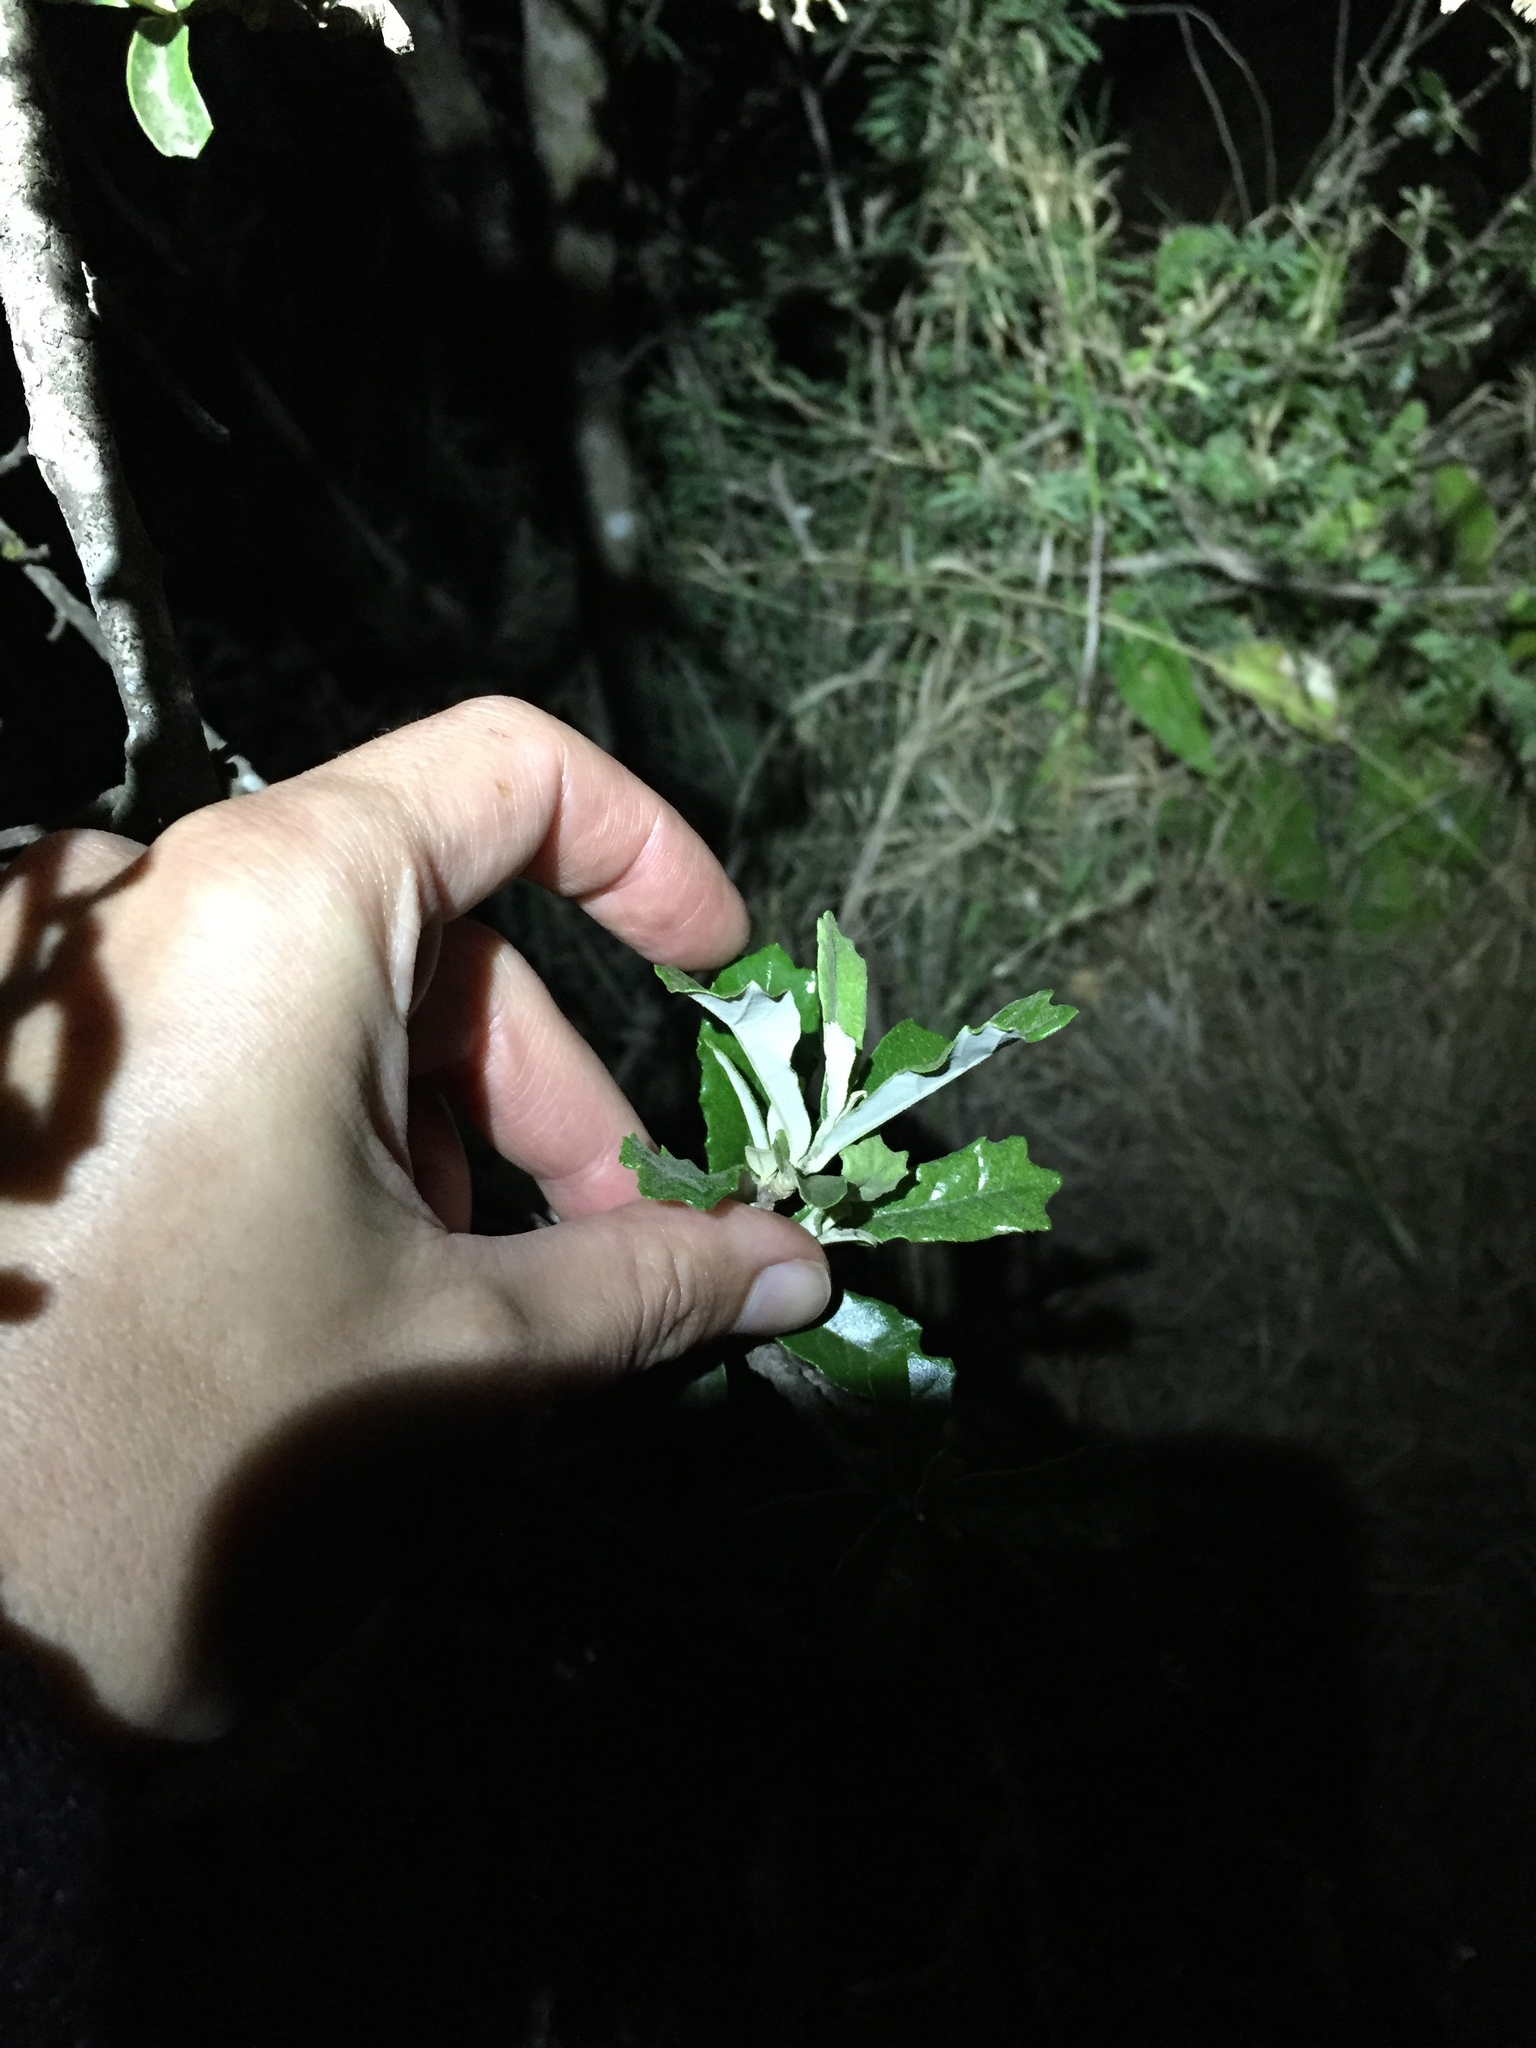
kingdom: Plantae
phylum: Tracheophyta
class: Magnoliopsida
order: Asterales
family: Asteraceae
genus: Brachylaena
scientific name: Brachylaena elliptica
